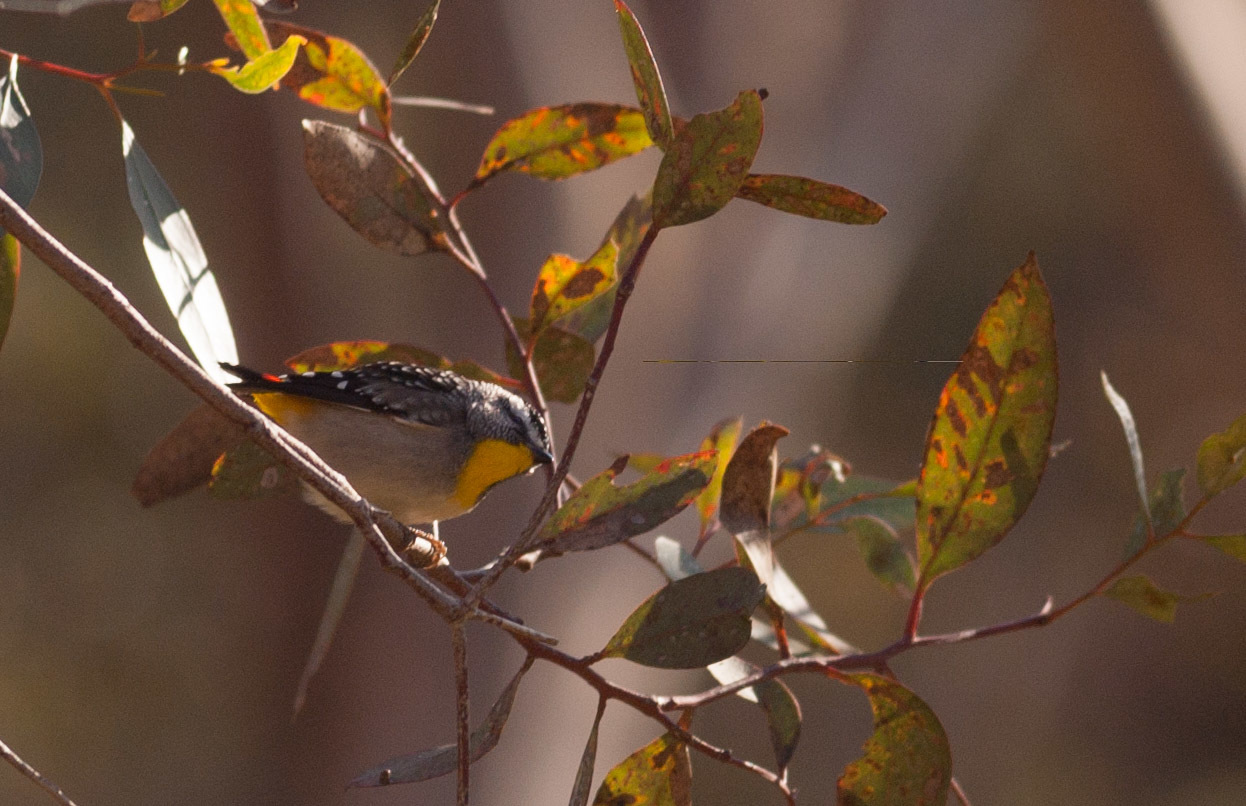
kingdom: Animalia
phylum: Chordata
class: Aves
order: Passeriformes
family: Pardalotidae
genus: Pardalotus
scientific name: Pardalotus punctatus
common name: Spotted pardalote
